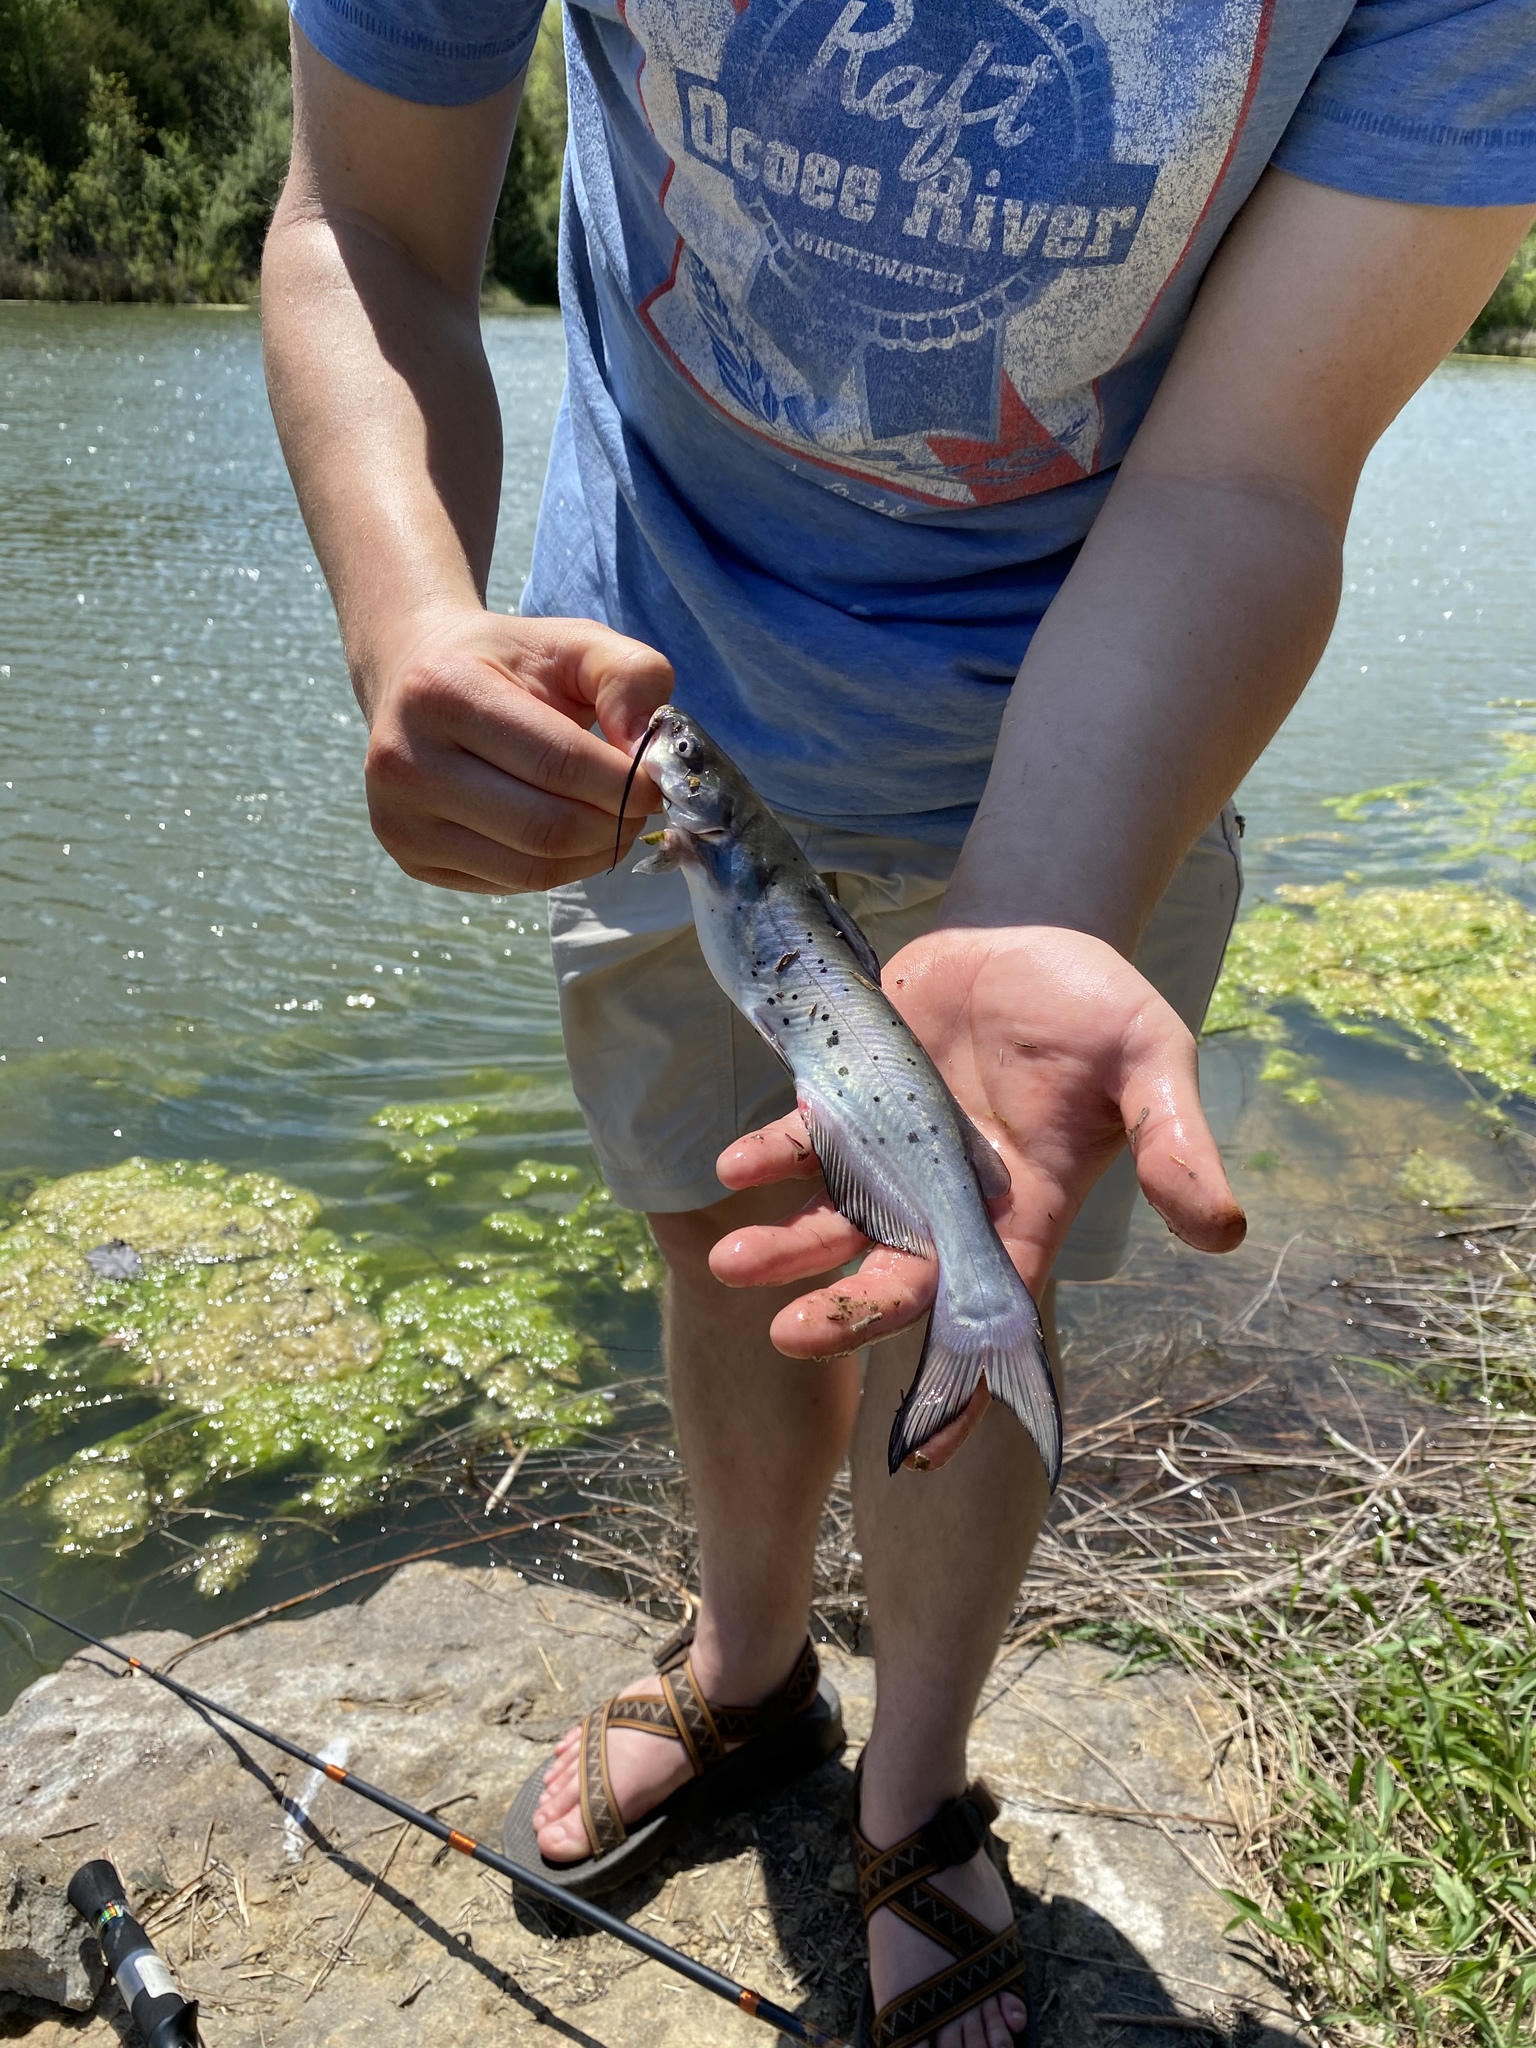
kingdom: Animalia
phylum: Chordata
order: Siluriformes
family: Ictaluridae
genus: Ictalurus
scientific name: Ictalurus punctatus
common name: Channel catfish
